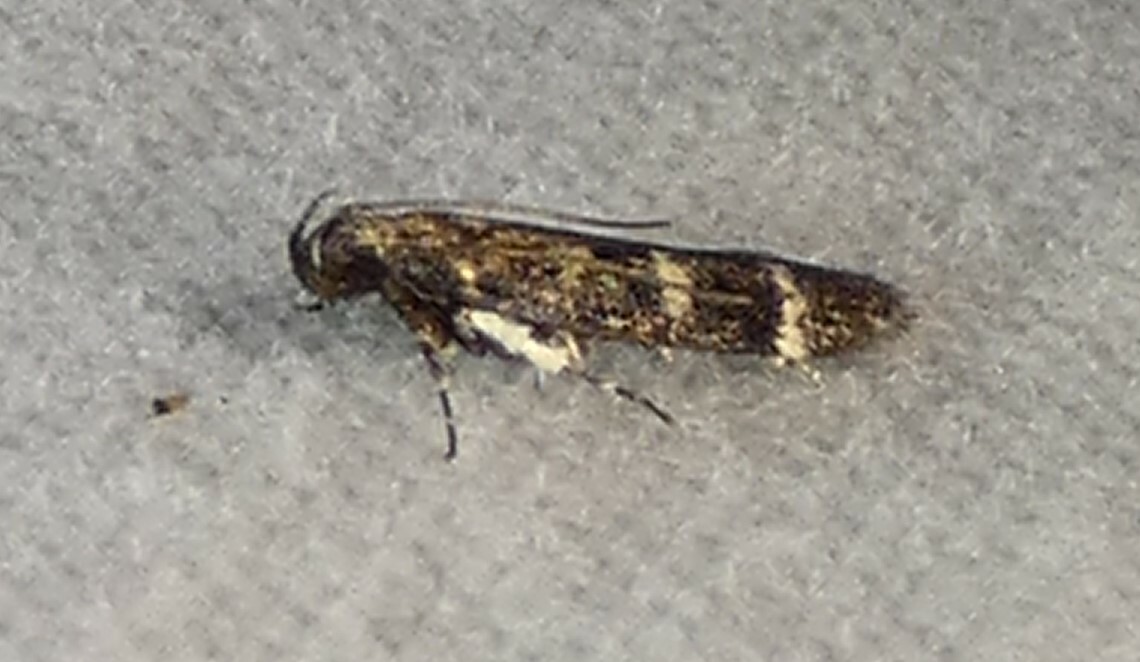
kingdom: Animalia
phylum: Arthropoda
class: Insecta
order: Lepidoptera
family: Gelechiidae
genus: Fascista
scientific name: Fascista bimaculella
